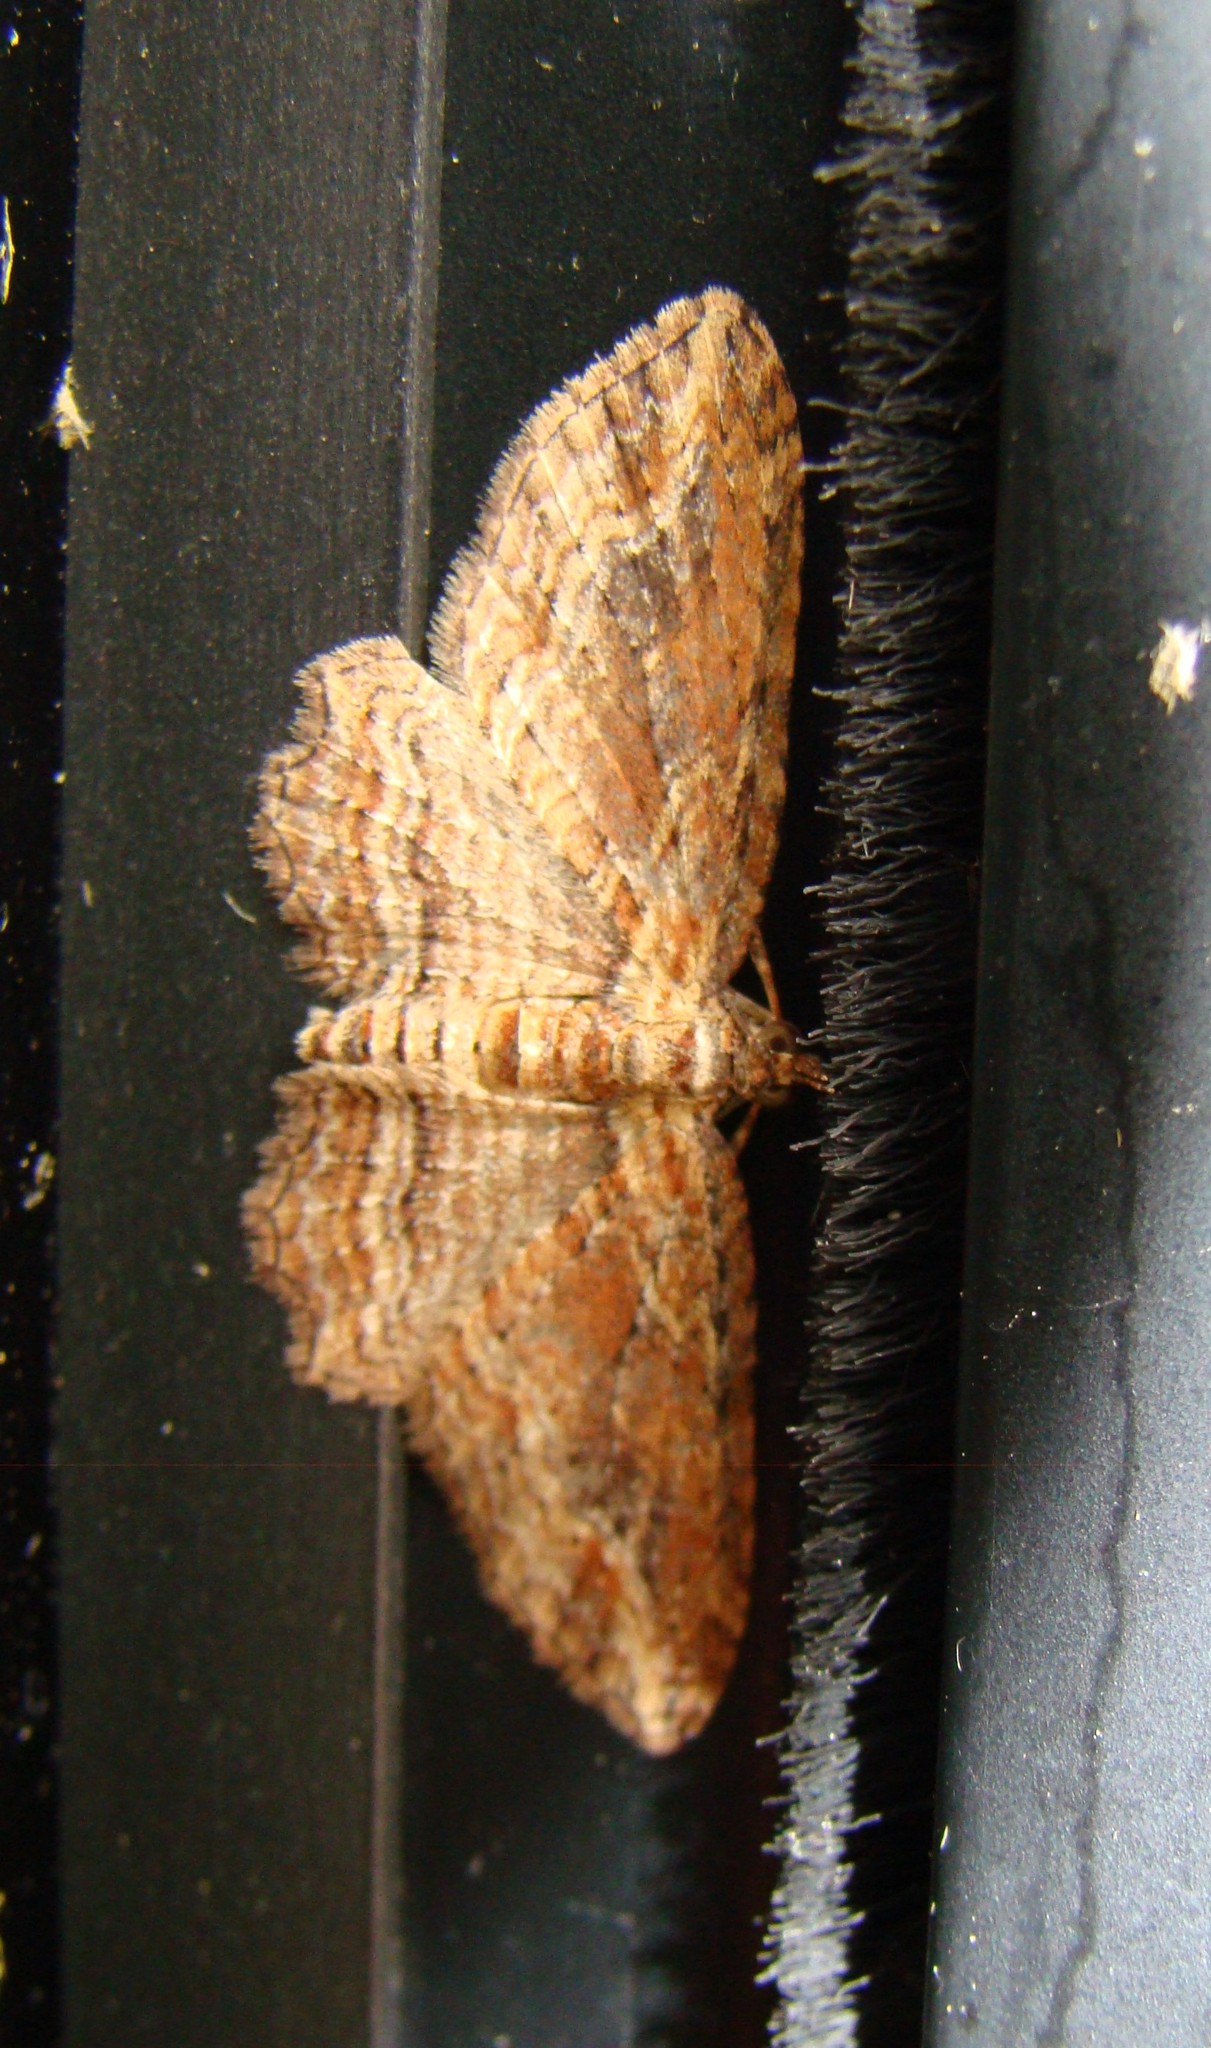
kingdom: Animalia
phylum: Arthropoda
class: Insecta
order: Lepidoptera
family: Geometridae
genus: Chloroclystis
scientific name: Chloroclystis filata
